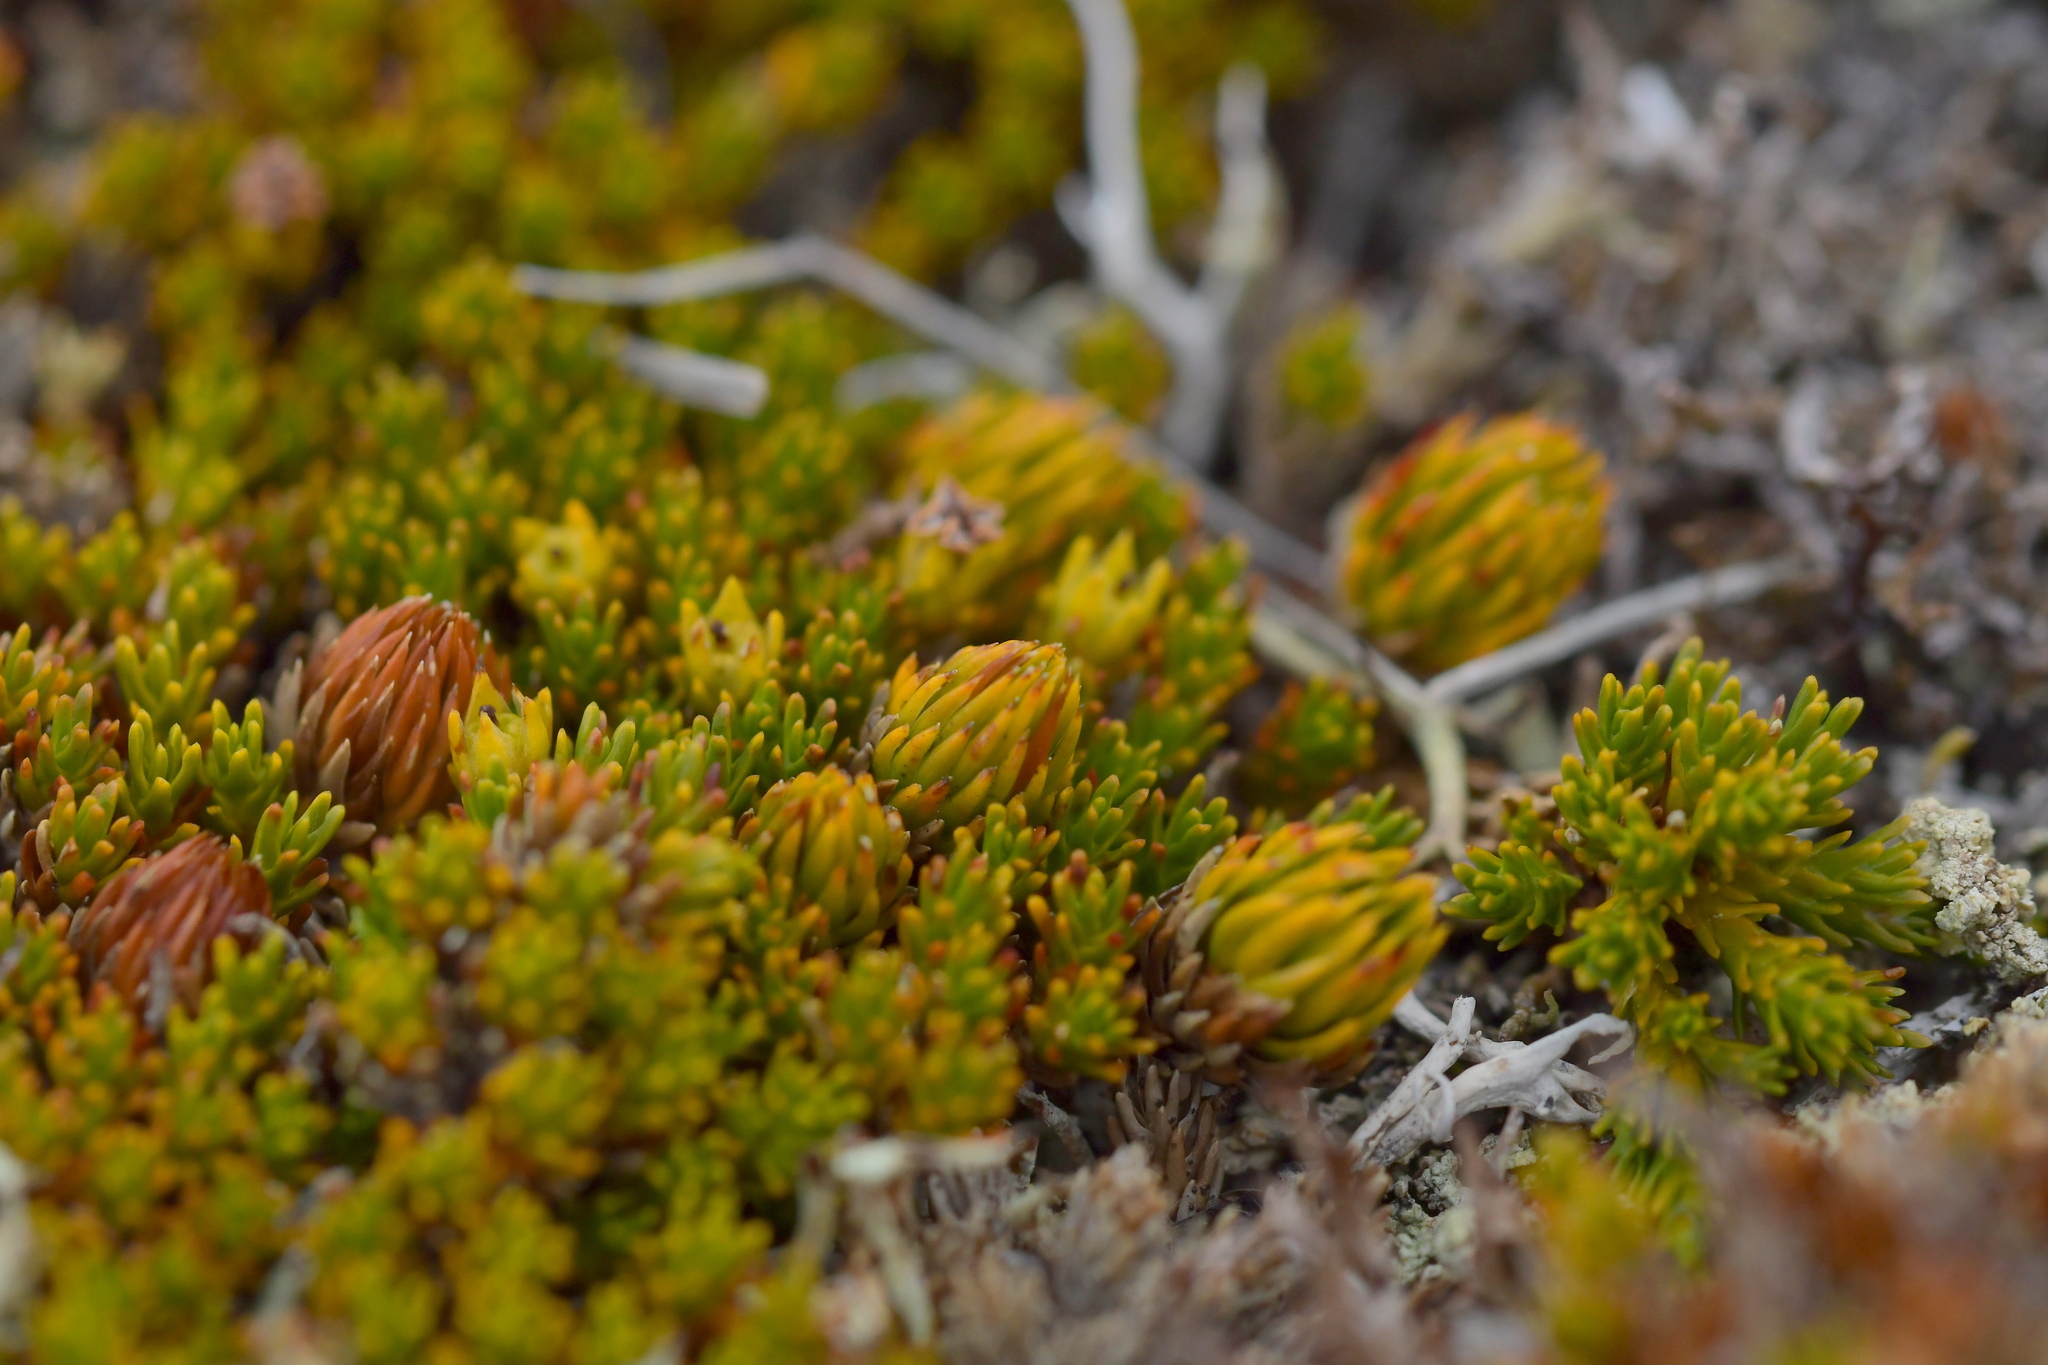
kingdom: Plantae
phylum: Tracheophyta
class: Magnoliopsida
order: Ericales
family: Ericaceae
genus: Dracophyllum
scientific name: Dracophyllum muscoides
